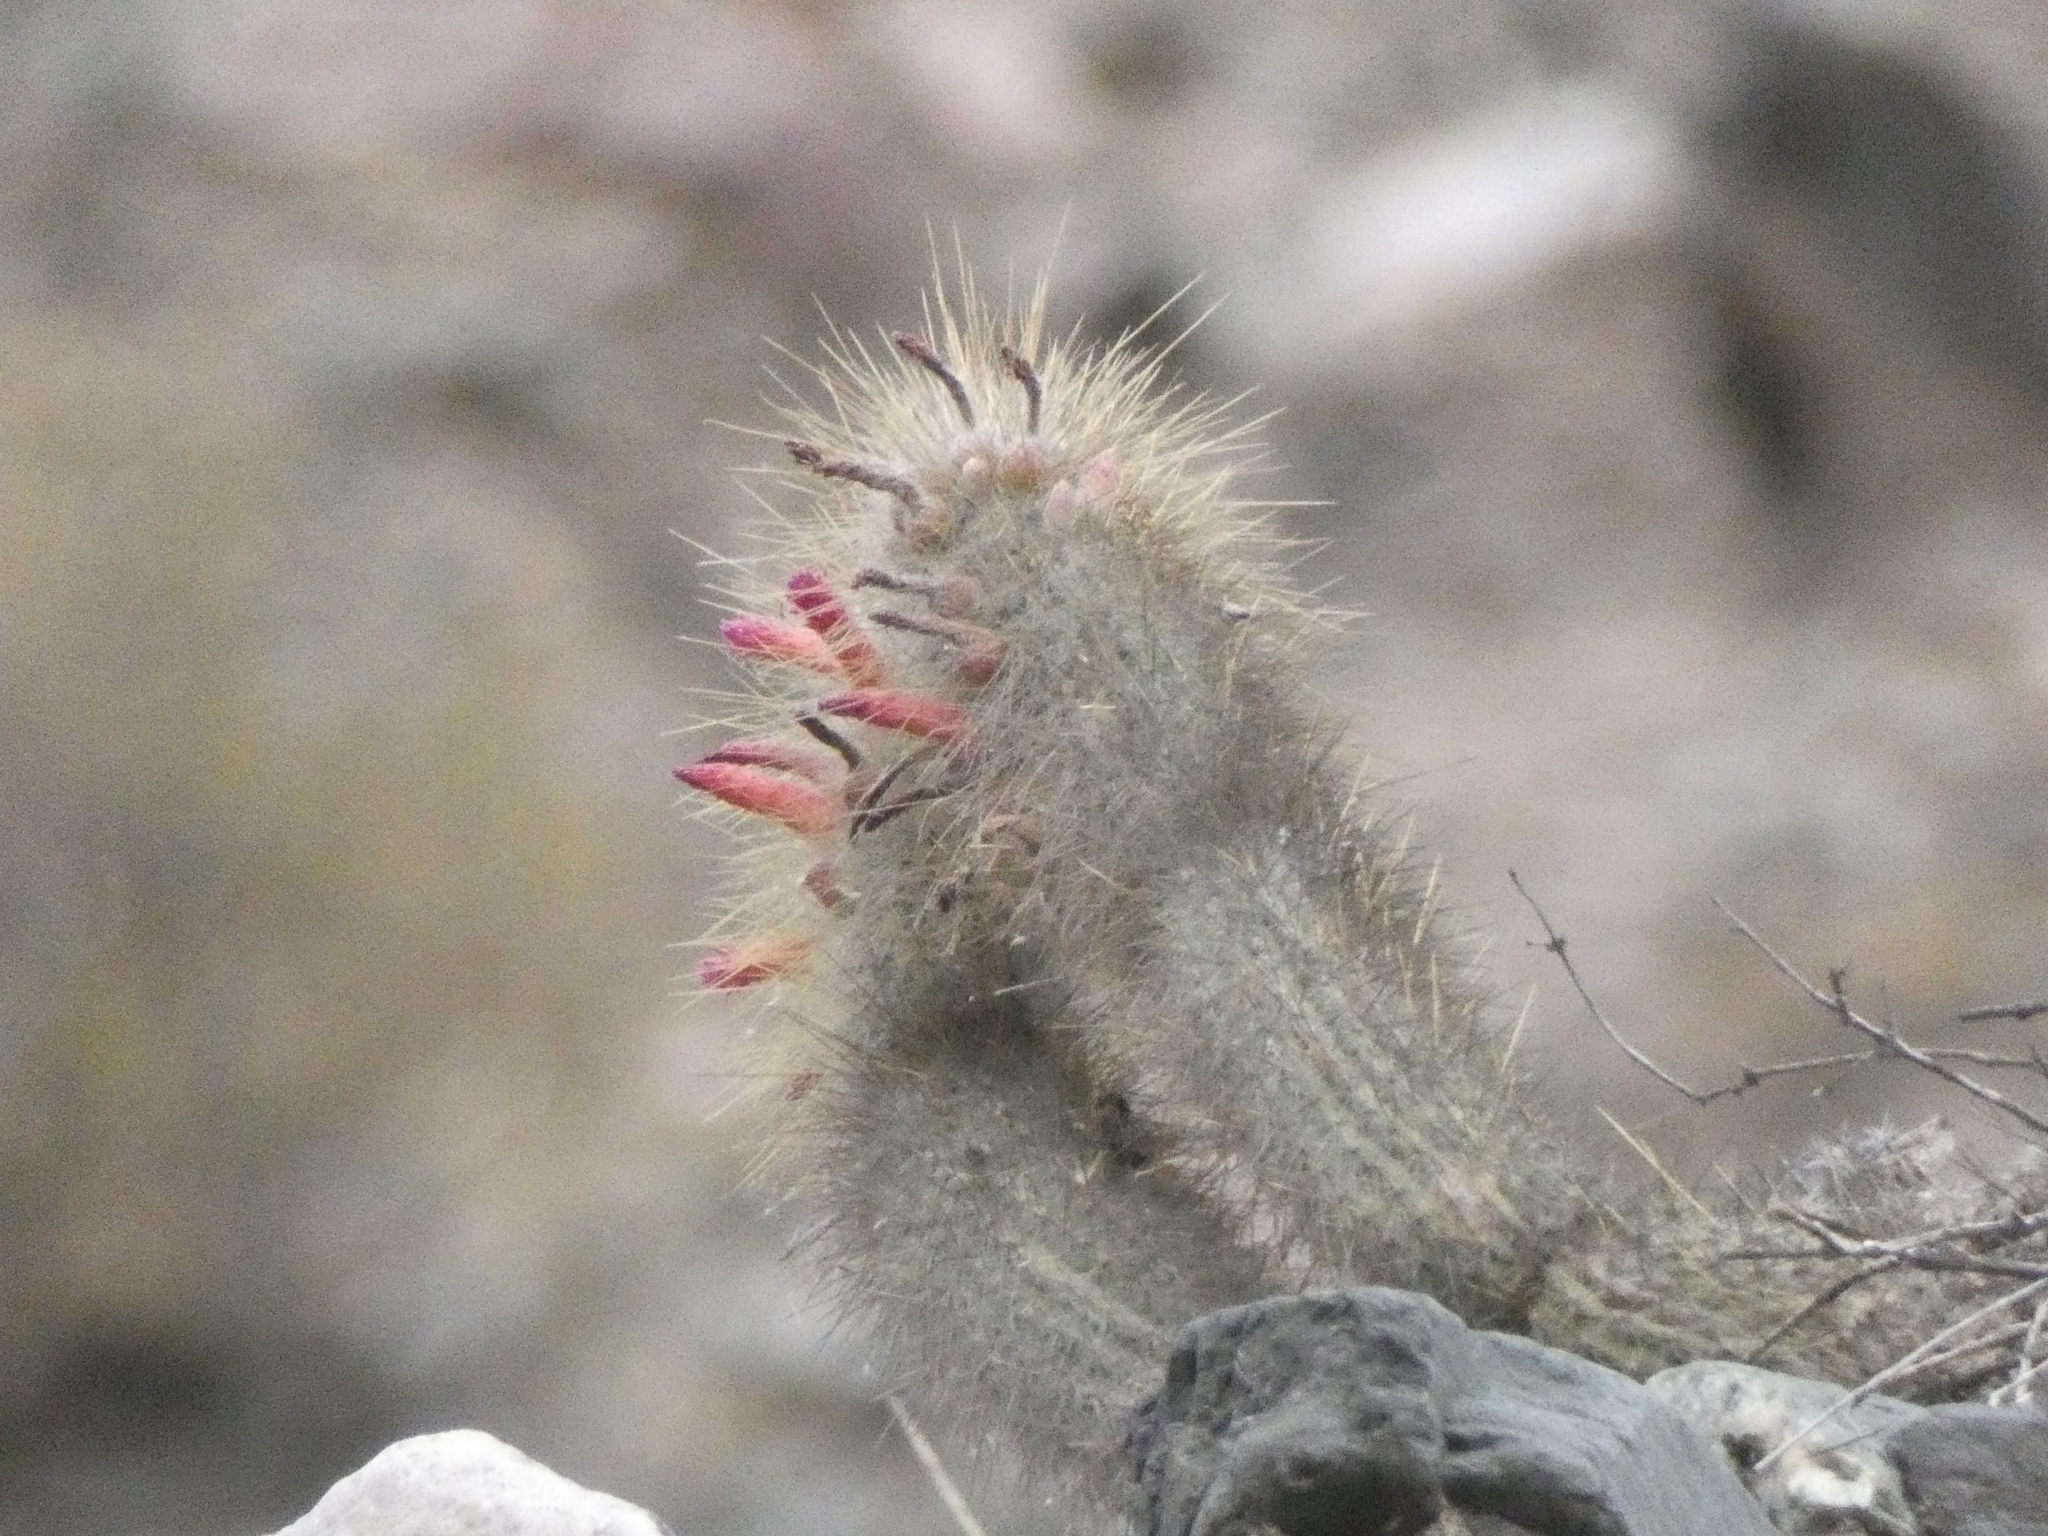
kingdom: Plantae
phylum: Tracheophyta
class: Magnoliopsida
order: Caryophyllales
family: Cactaceae
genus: Cleistocactus
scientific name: Cleistocactus hyalacanthus
